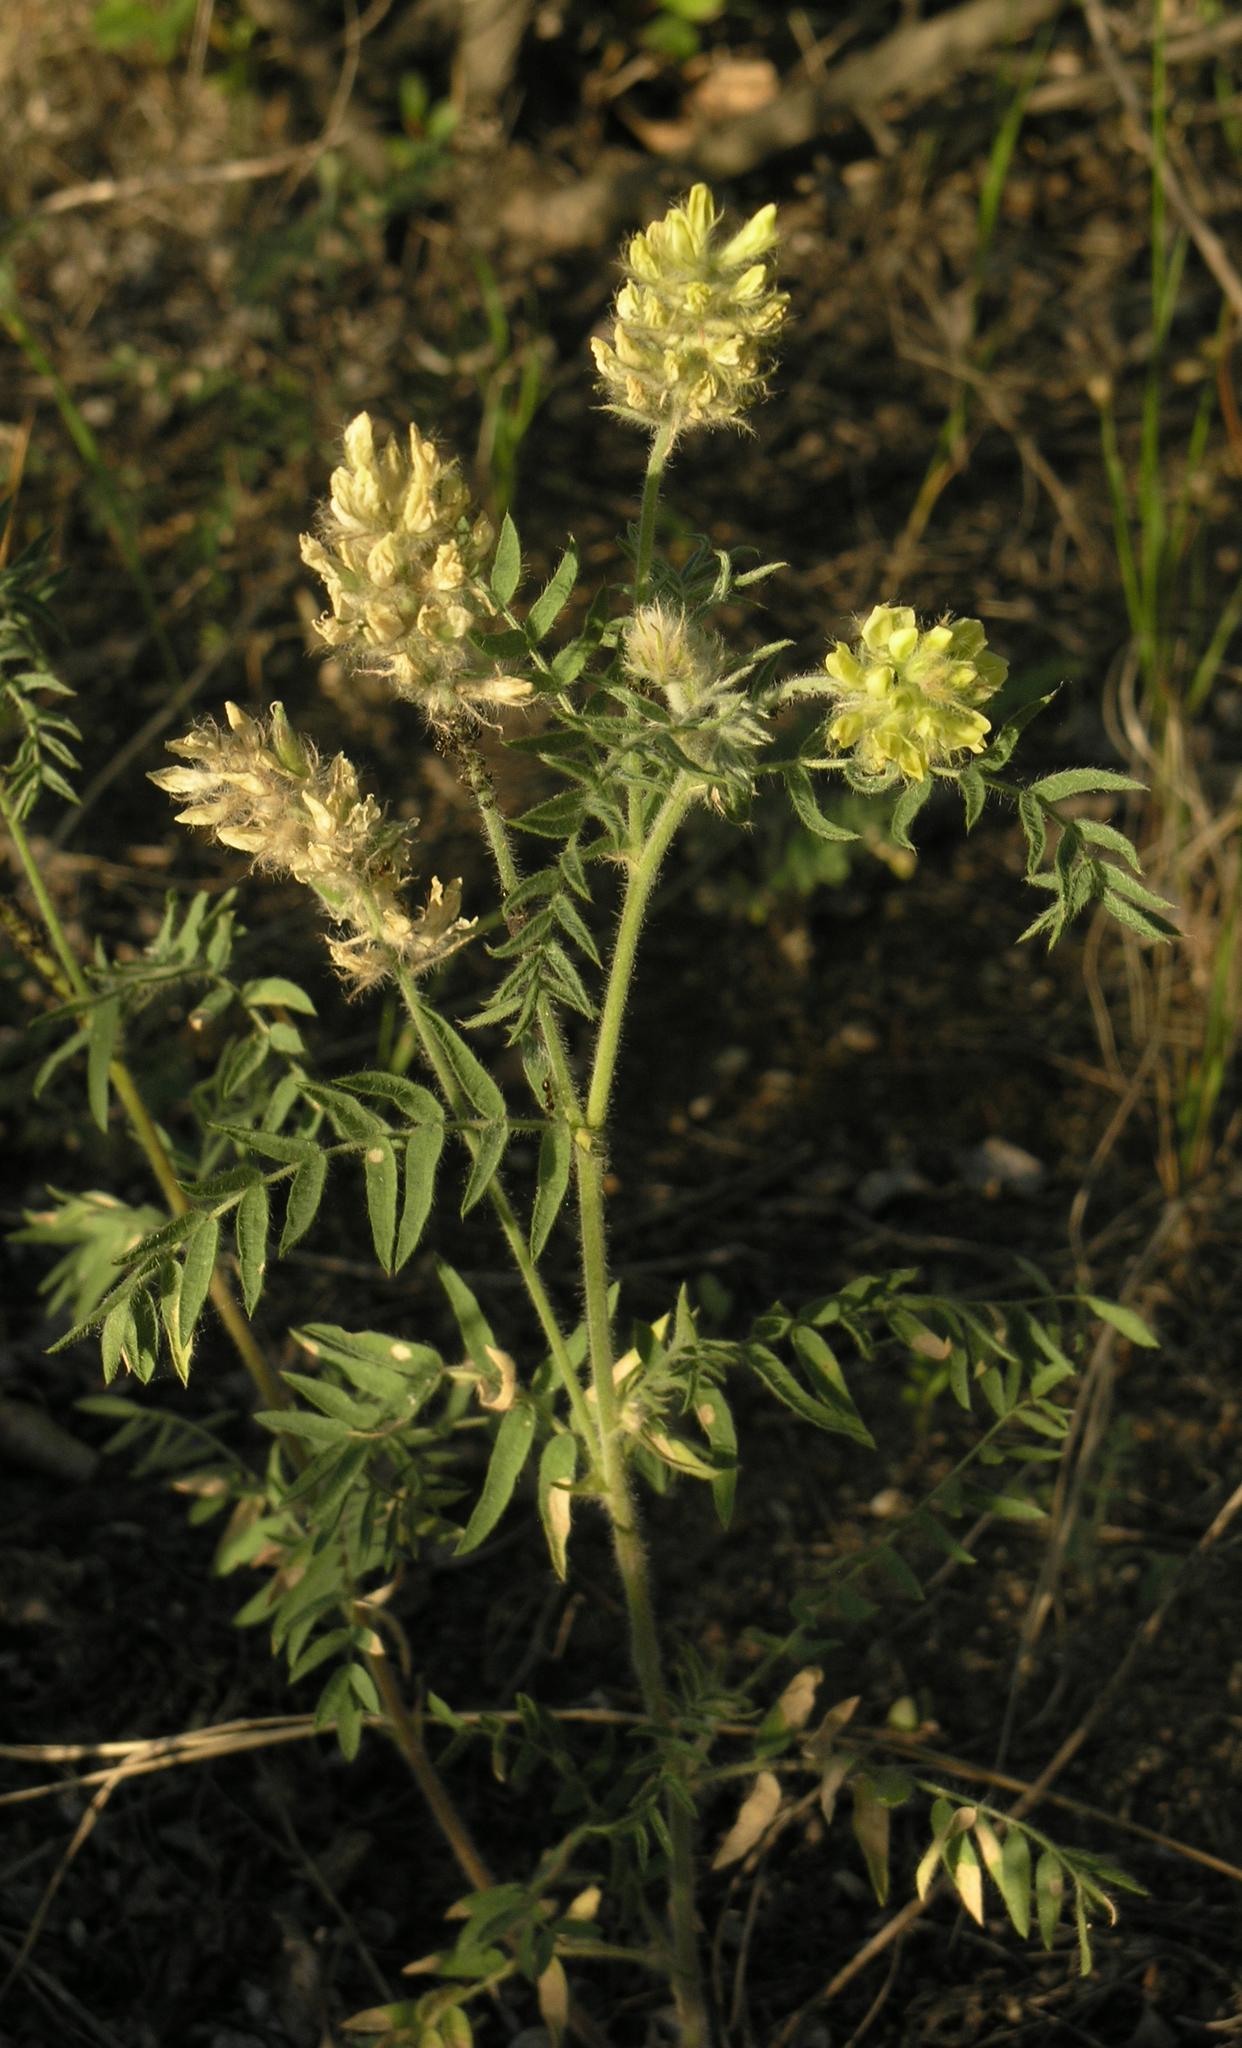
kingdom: Plantae
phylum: Tracheophyta
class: Magnoliopsida
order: Fabales
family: Fabaceae
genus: Oxytropis
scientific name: Oxytropis pilosa
